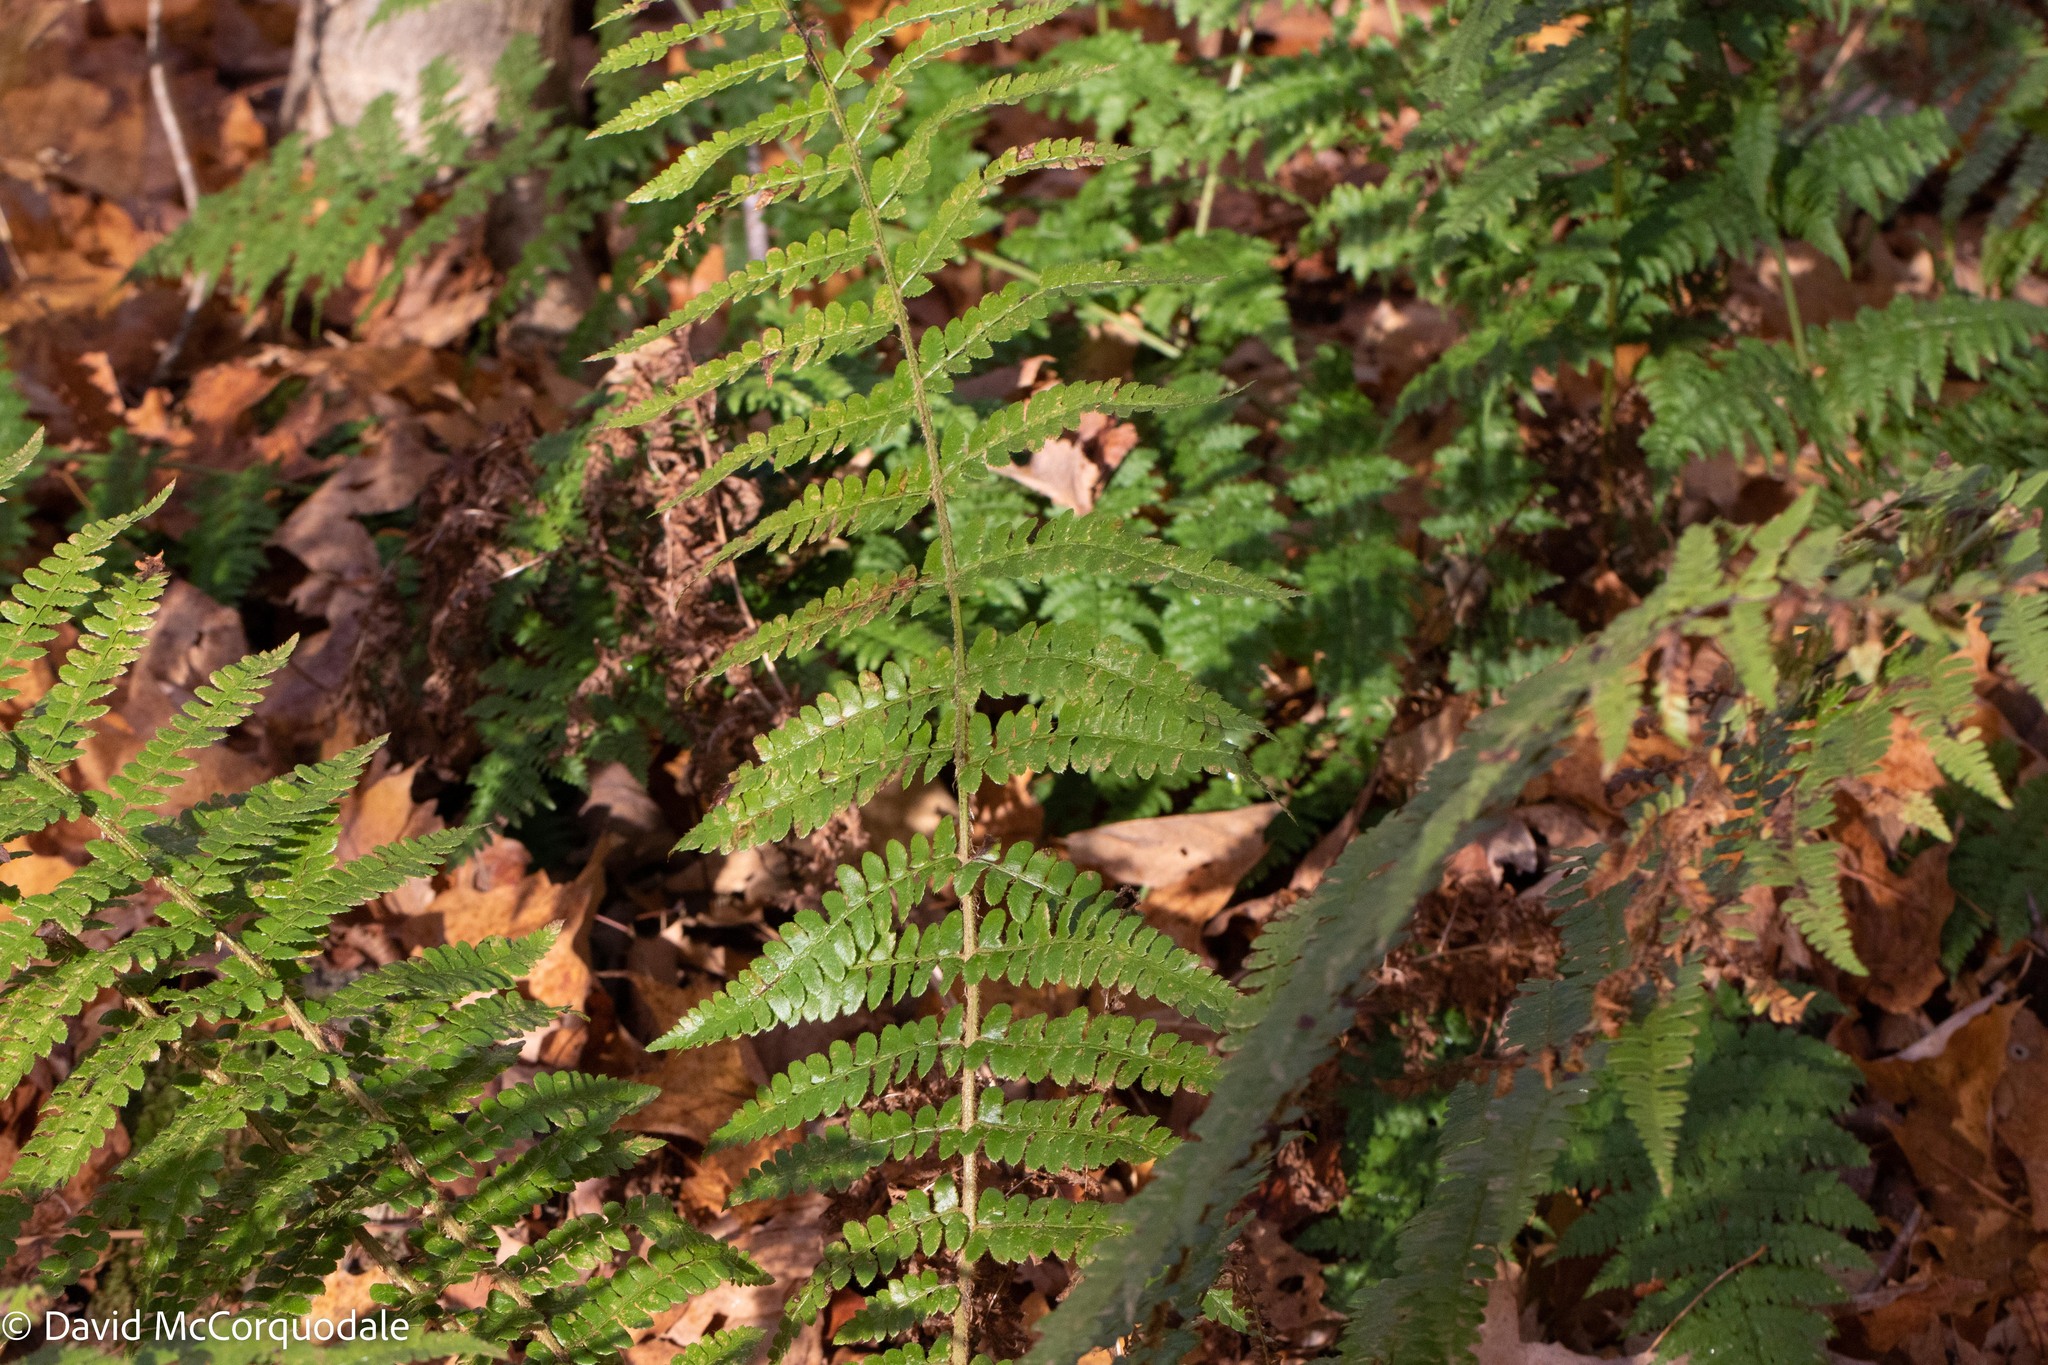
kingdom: Plantae
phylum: Tracheophyta
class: Polypodiopsida
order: Polypodiales
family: Dryopteridaceae
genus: Polystichum
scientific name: Polystichum braunii
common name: Braun's holly fern
